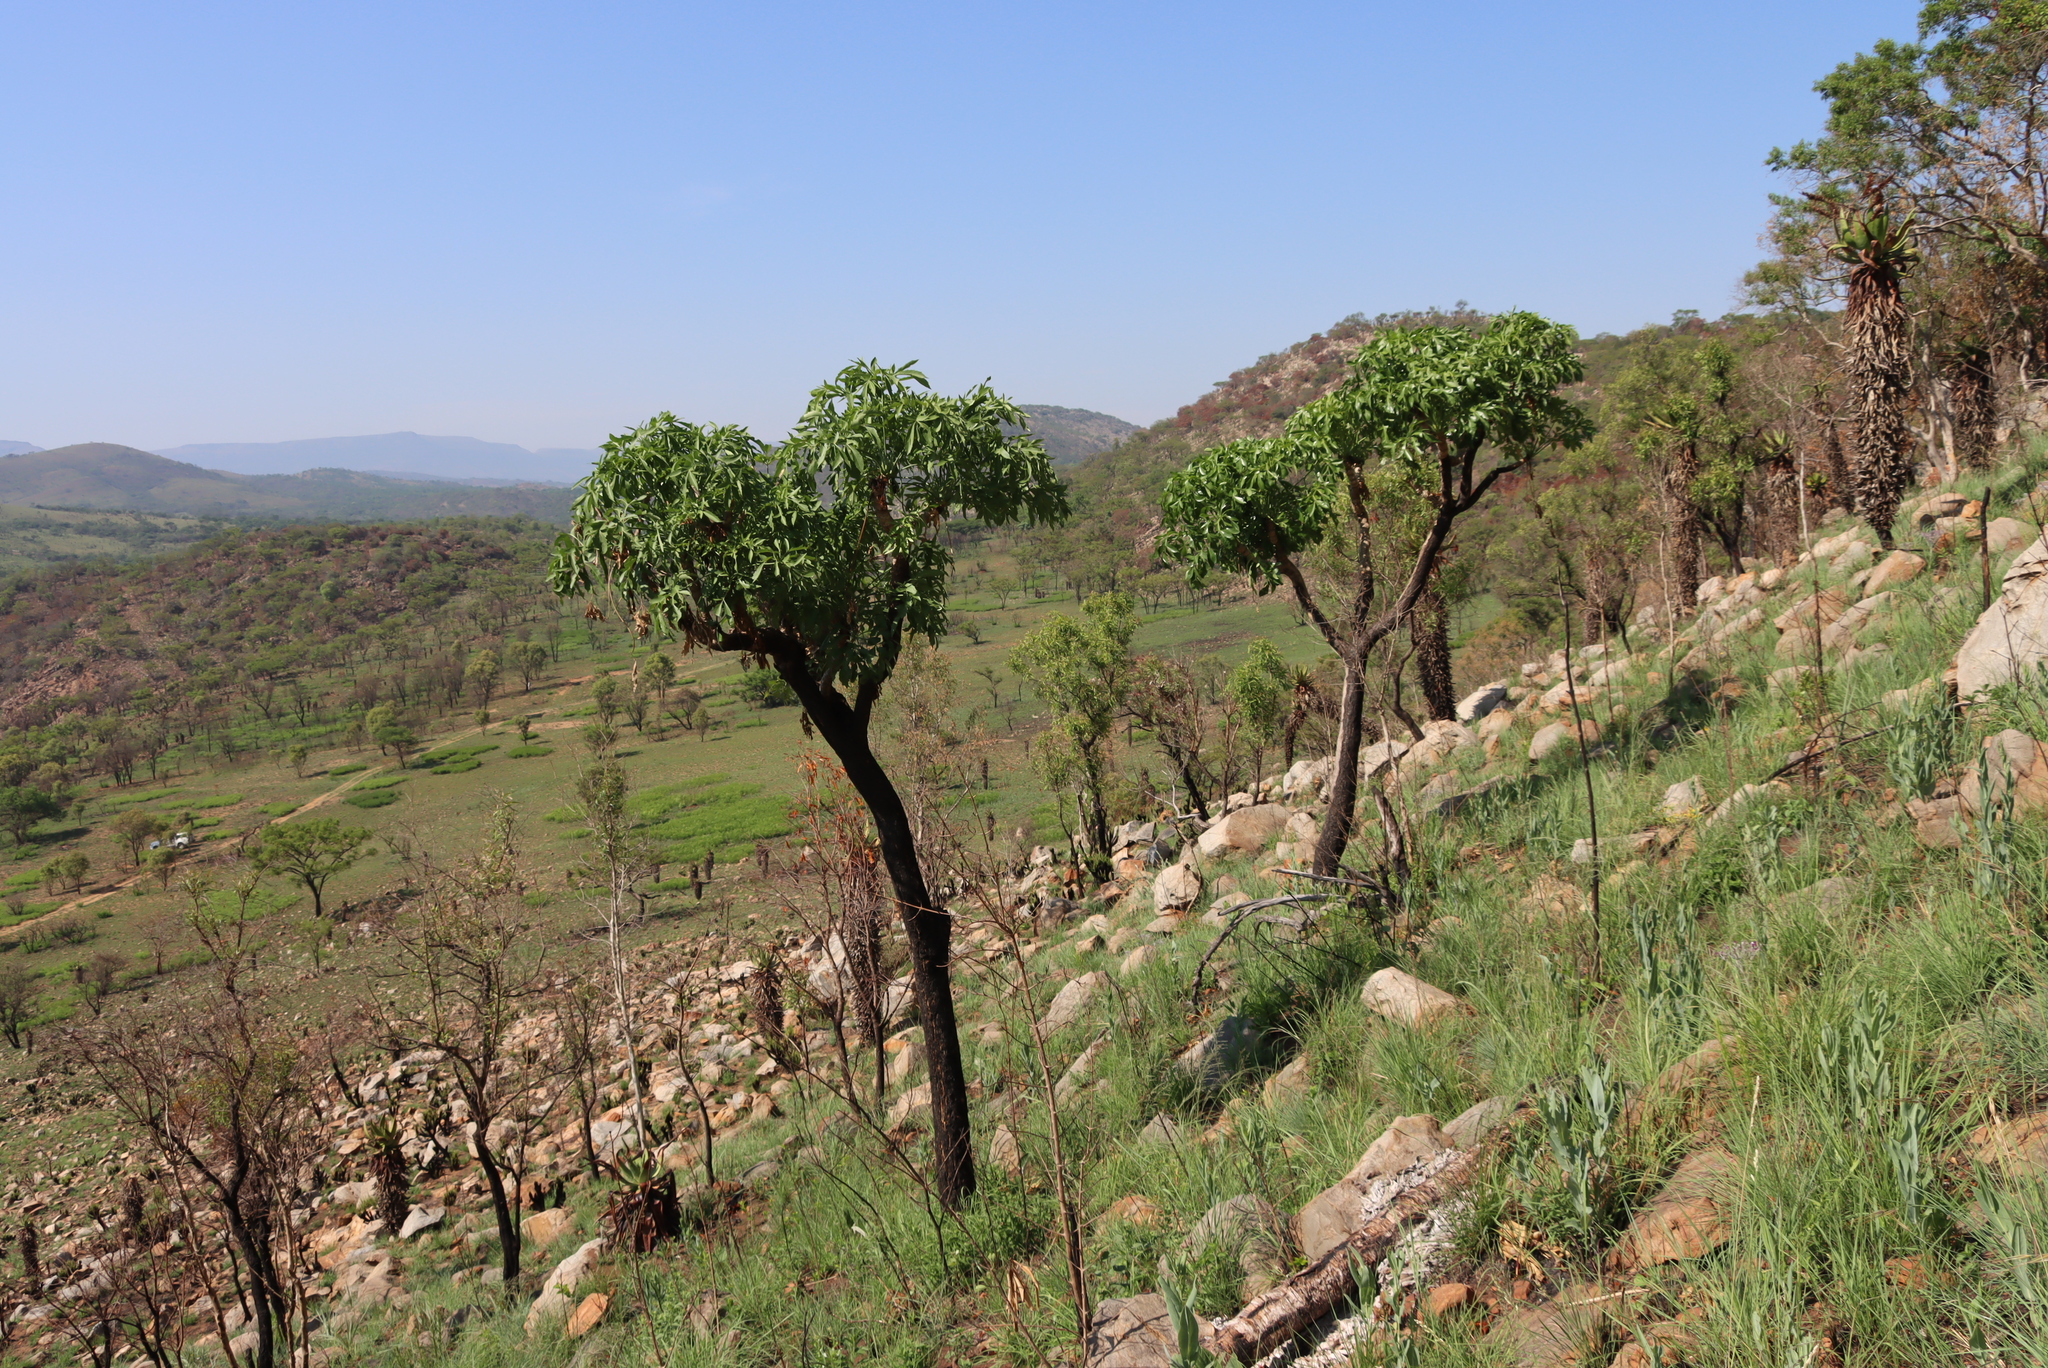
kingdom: Plantae
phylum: Tracheophyta
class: Magnoliopsida
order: Apiales
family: Araliaceae
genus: Cussonia
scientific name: Cussonia spicata
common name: Common cabbagetree
